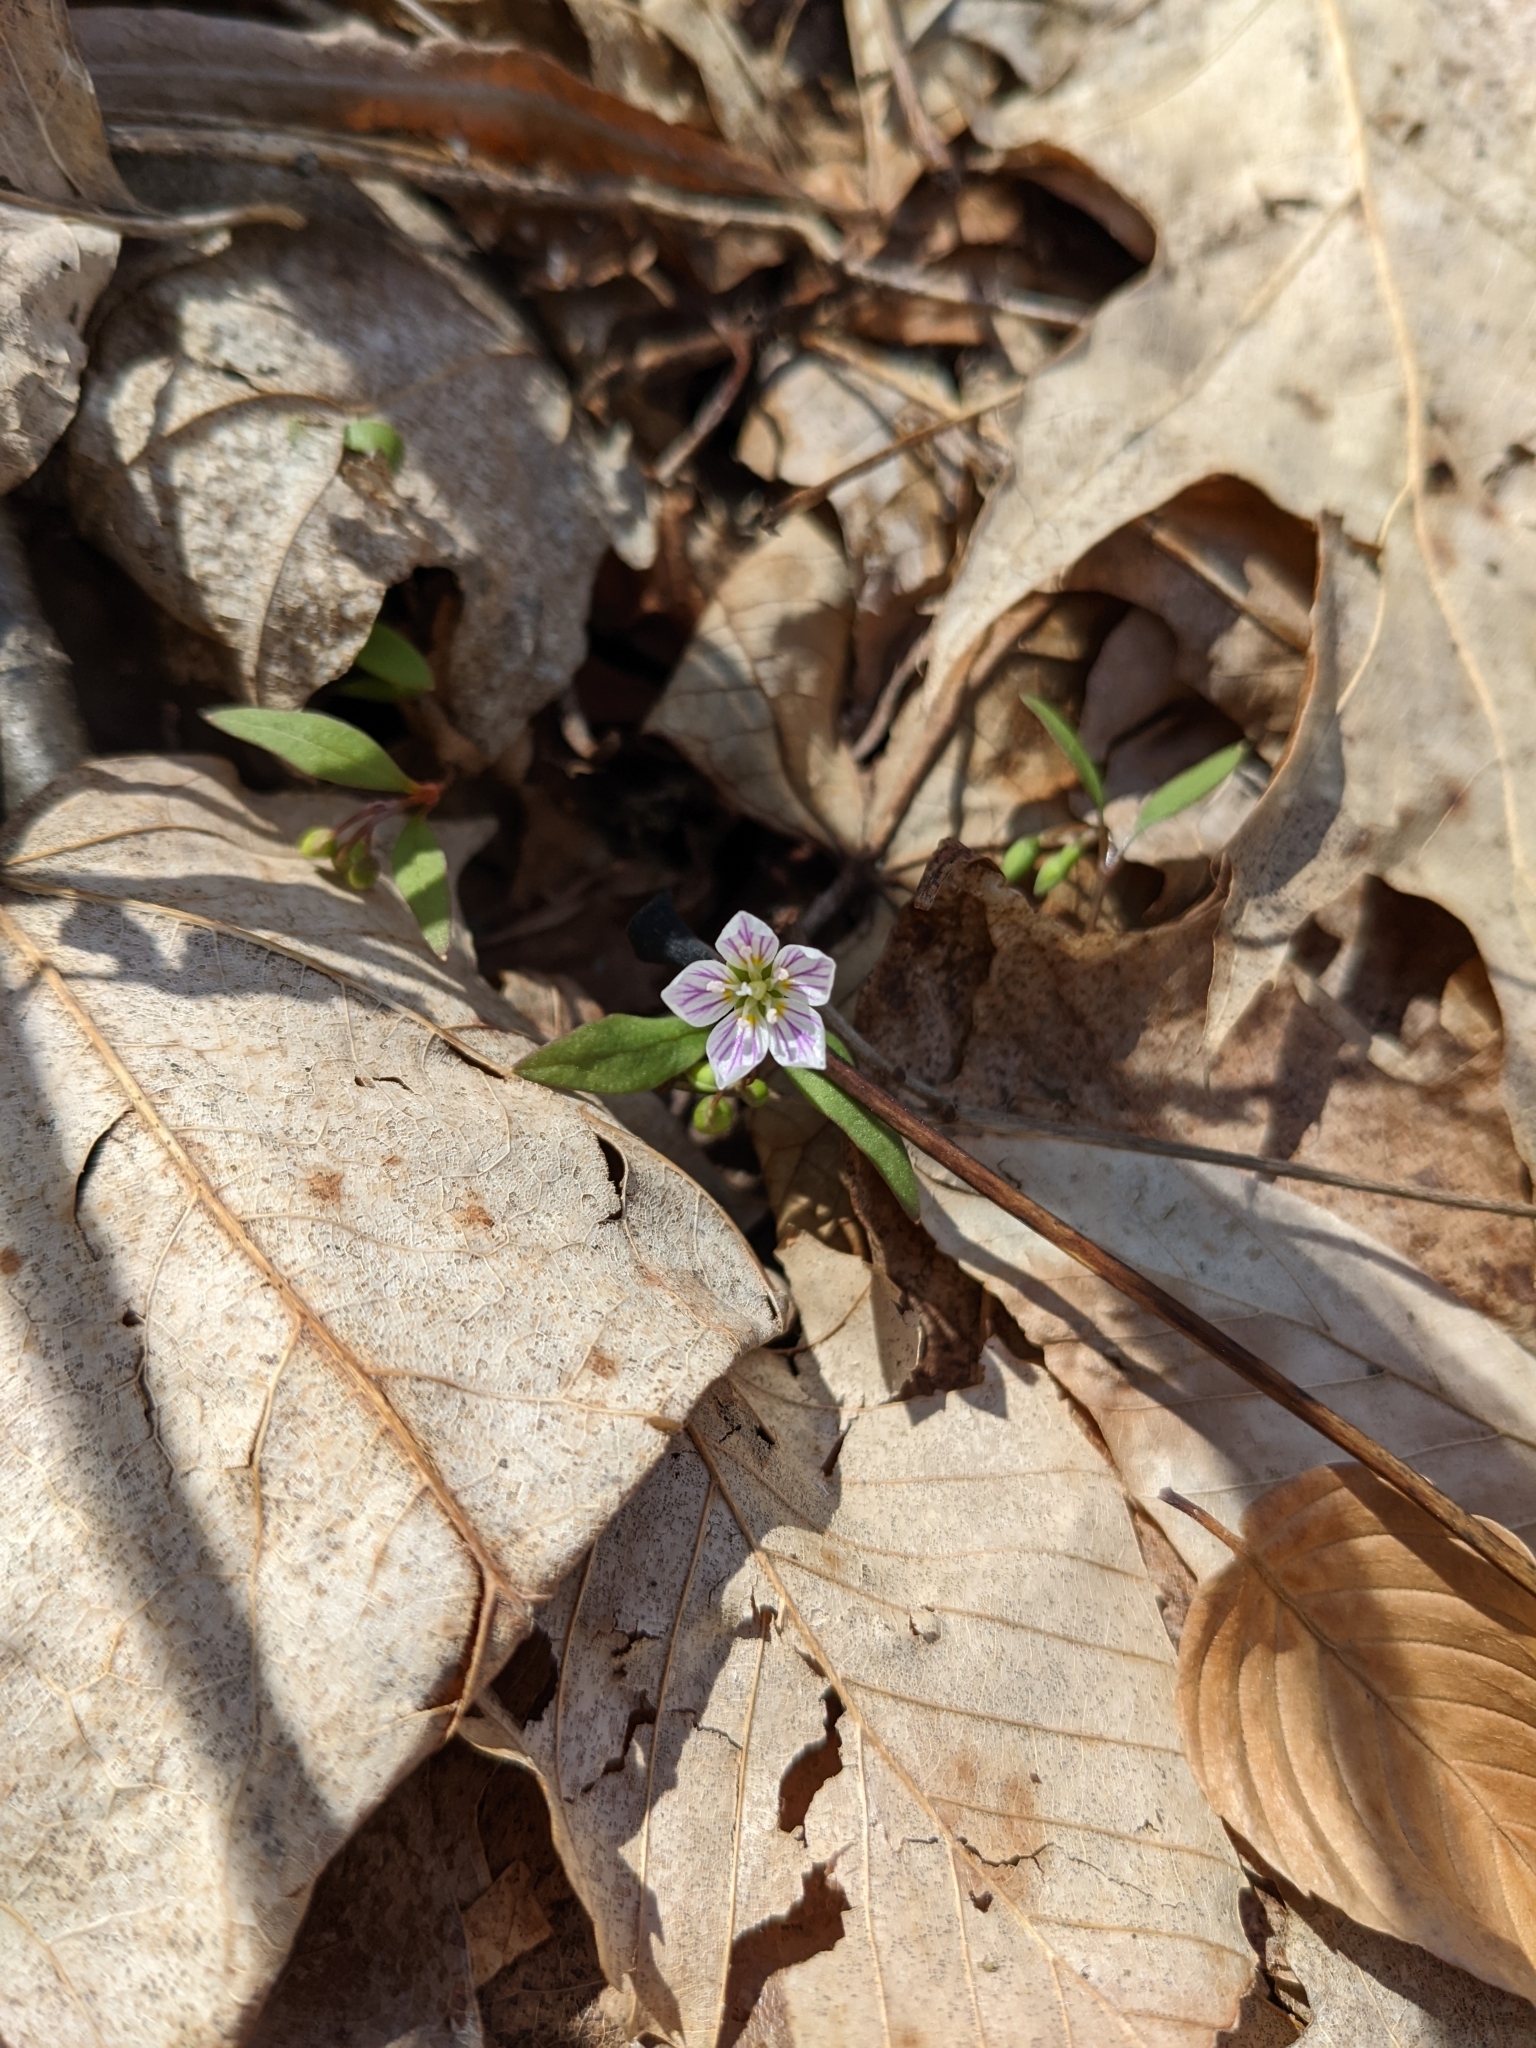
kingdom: Plantae
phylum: Tracheophyta
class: Magnoliopsida
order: Caryophyllales
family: Montiaceae
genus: Claytonia
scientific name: Claytonia caroliniana
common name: Carolina spring beauty
